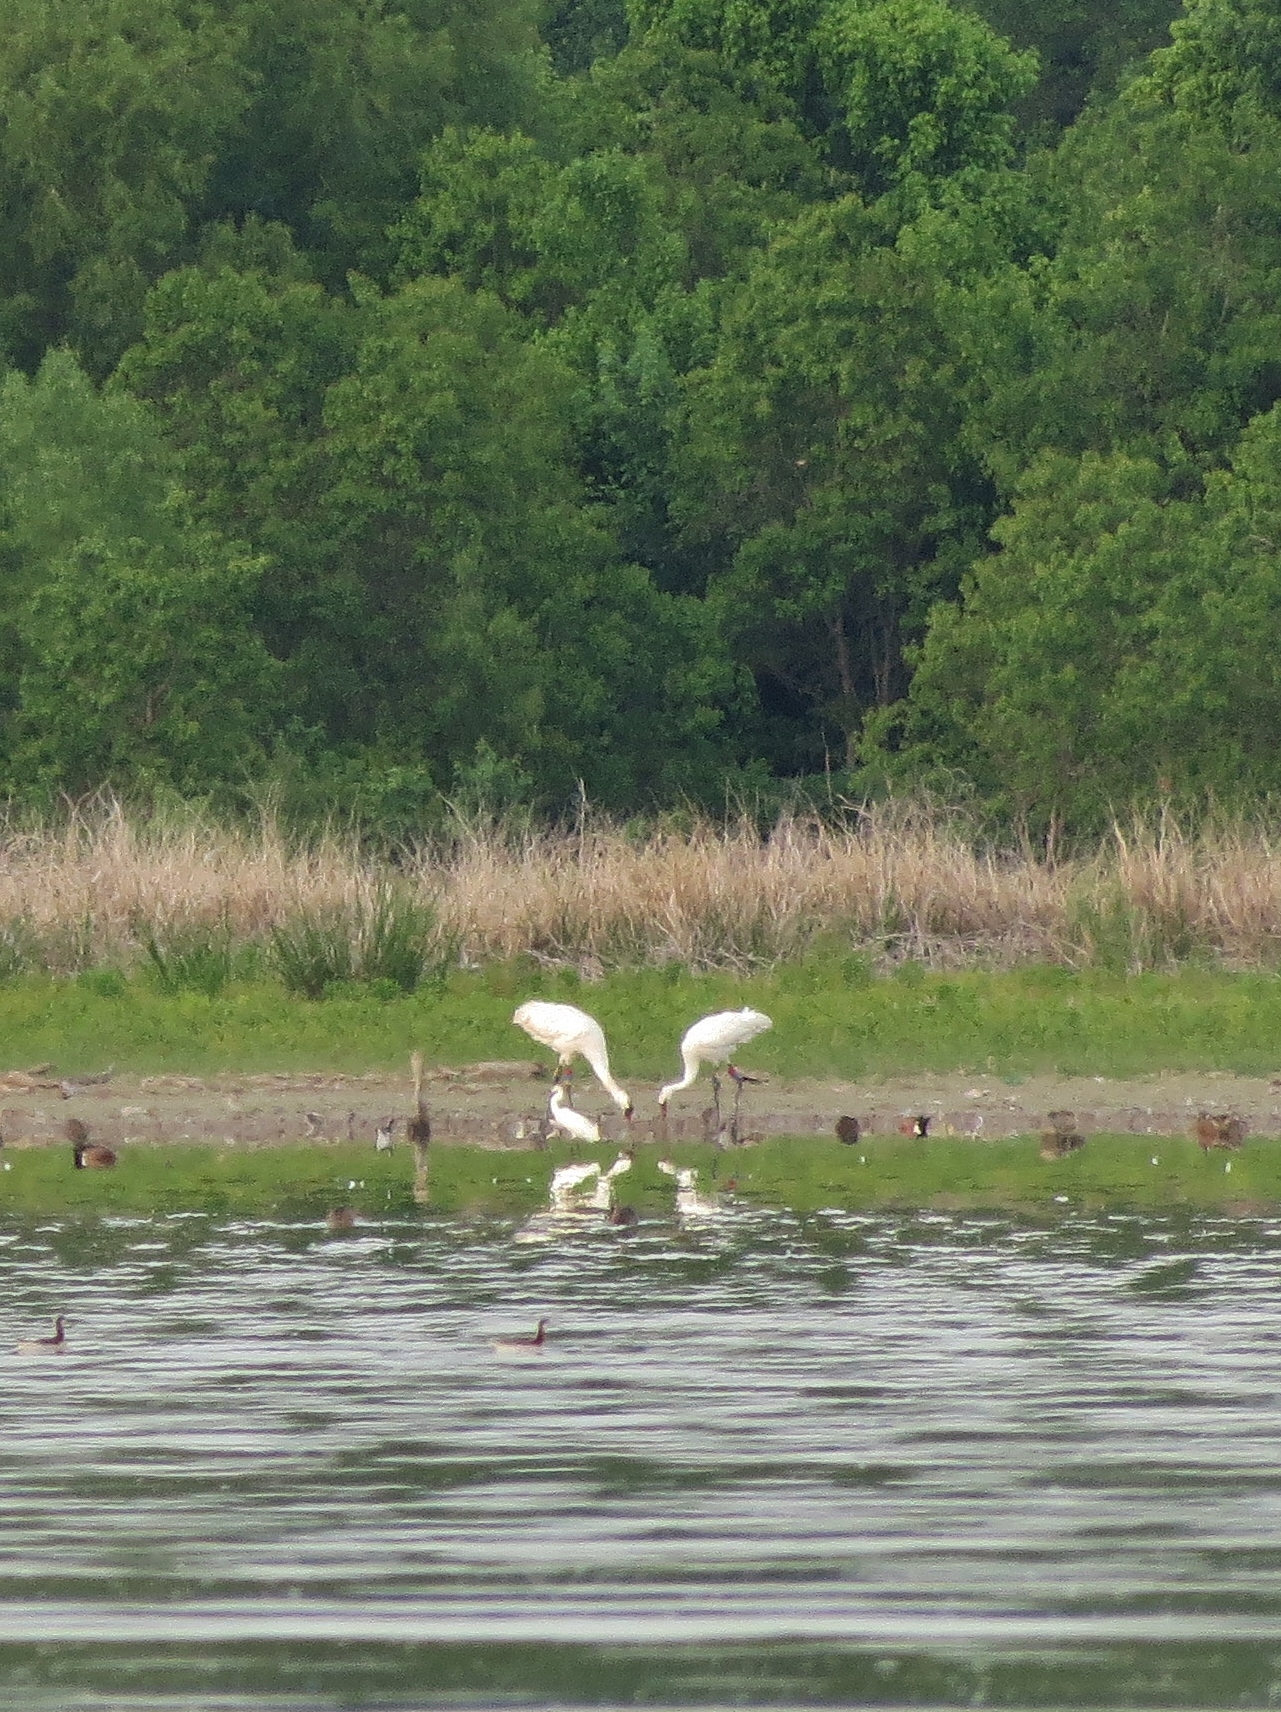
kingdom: Animalia
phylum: Chordata
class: Aves
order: Gruiformes
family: Gruidae
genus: Grus
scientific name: Grus americana
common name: Whooping crane
